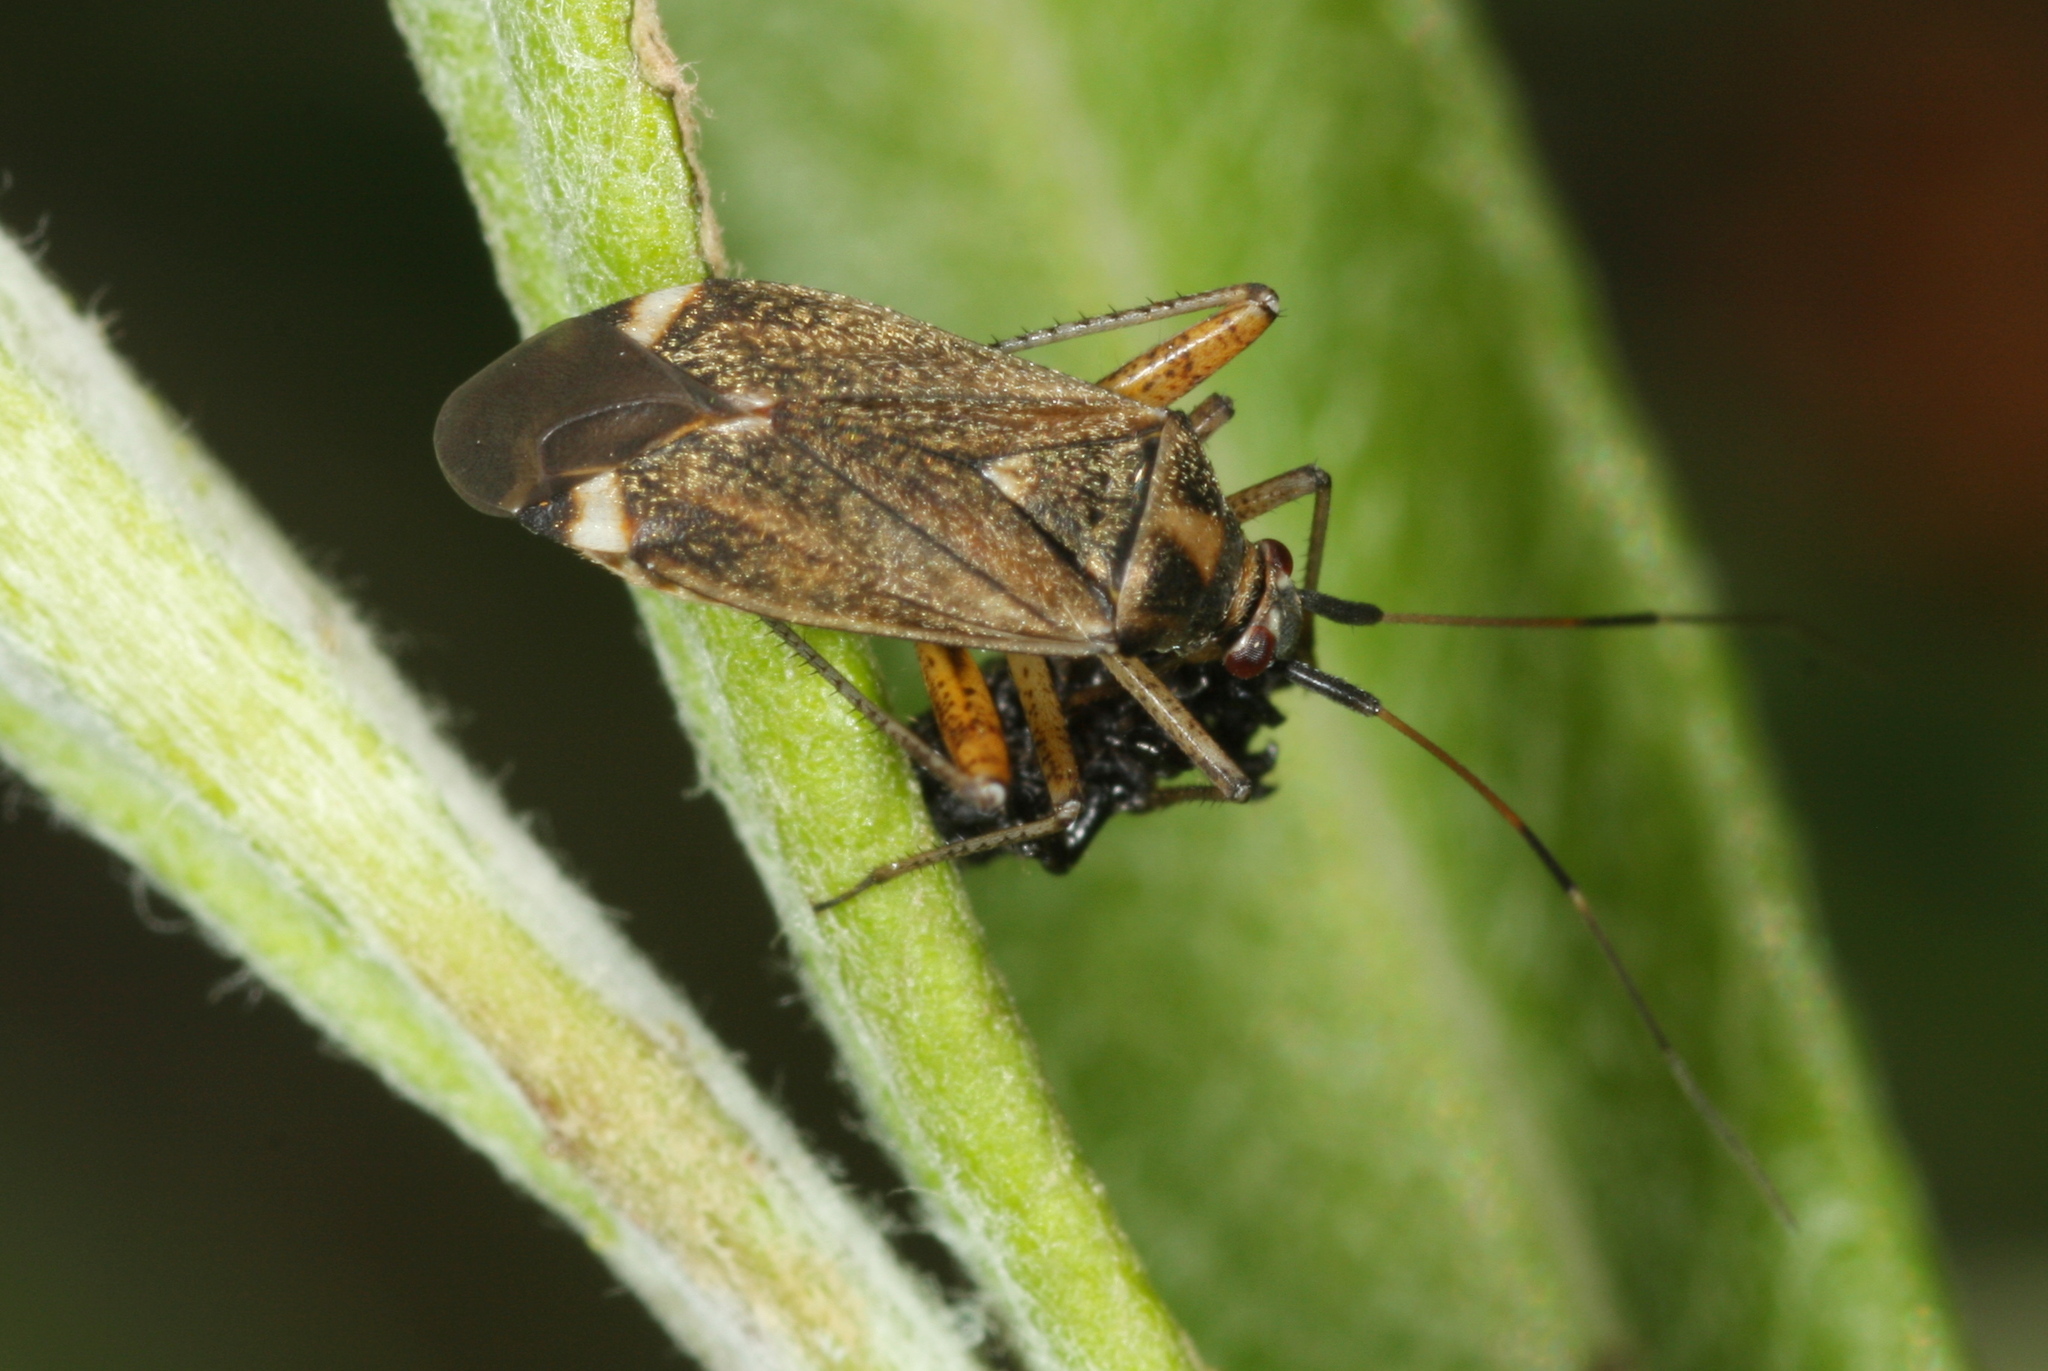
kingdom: Animalia
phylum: Arthropoda
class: Insecta
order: Hemiptera
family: Miridae
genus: Closterotomus
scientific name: Closterotomus fulvomaculatus
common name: Spotted plant bug
